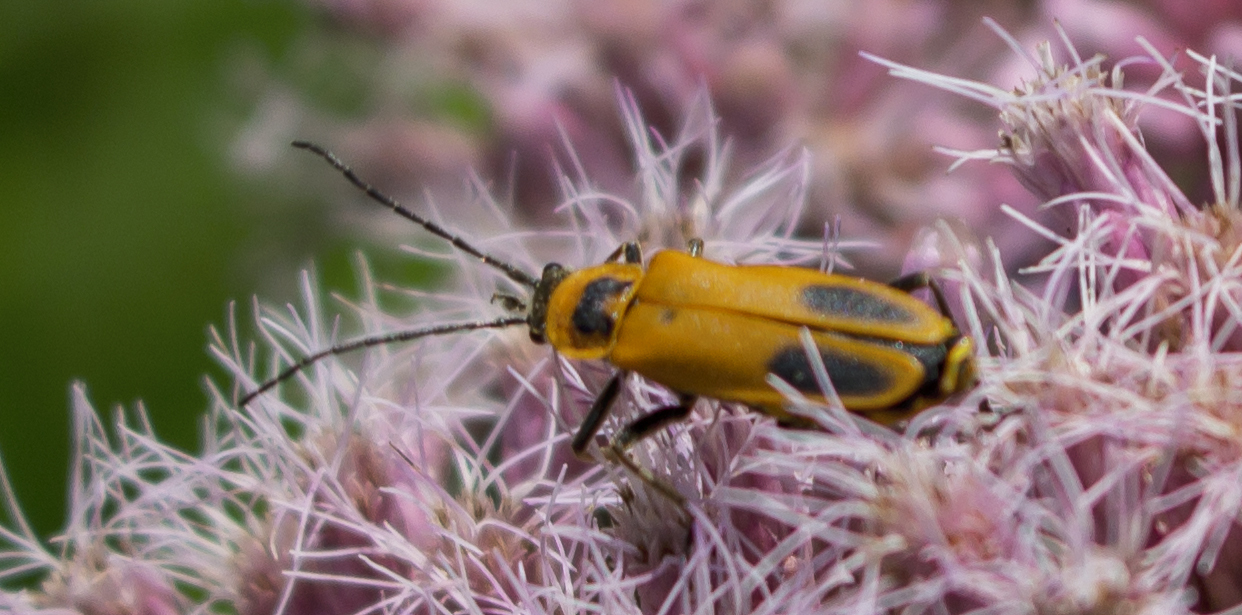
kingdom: Animalia
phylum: Arthropoda
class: Insecta
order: Coleoptera
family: Cantharidae
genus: Chauliognathus
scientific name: Chauliognathus pensylvanicus
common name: Goldenrod soldier beetle
